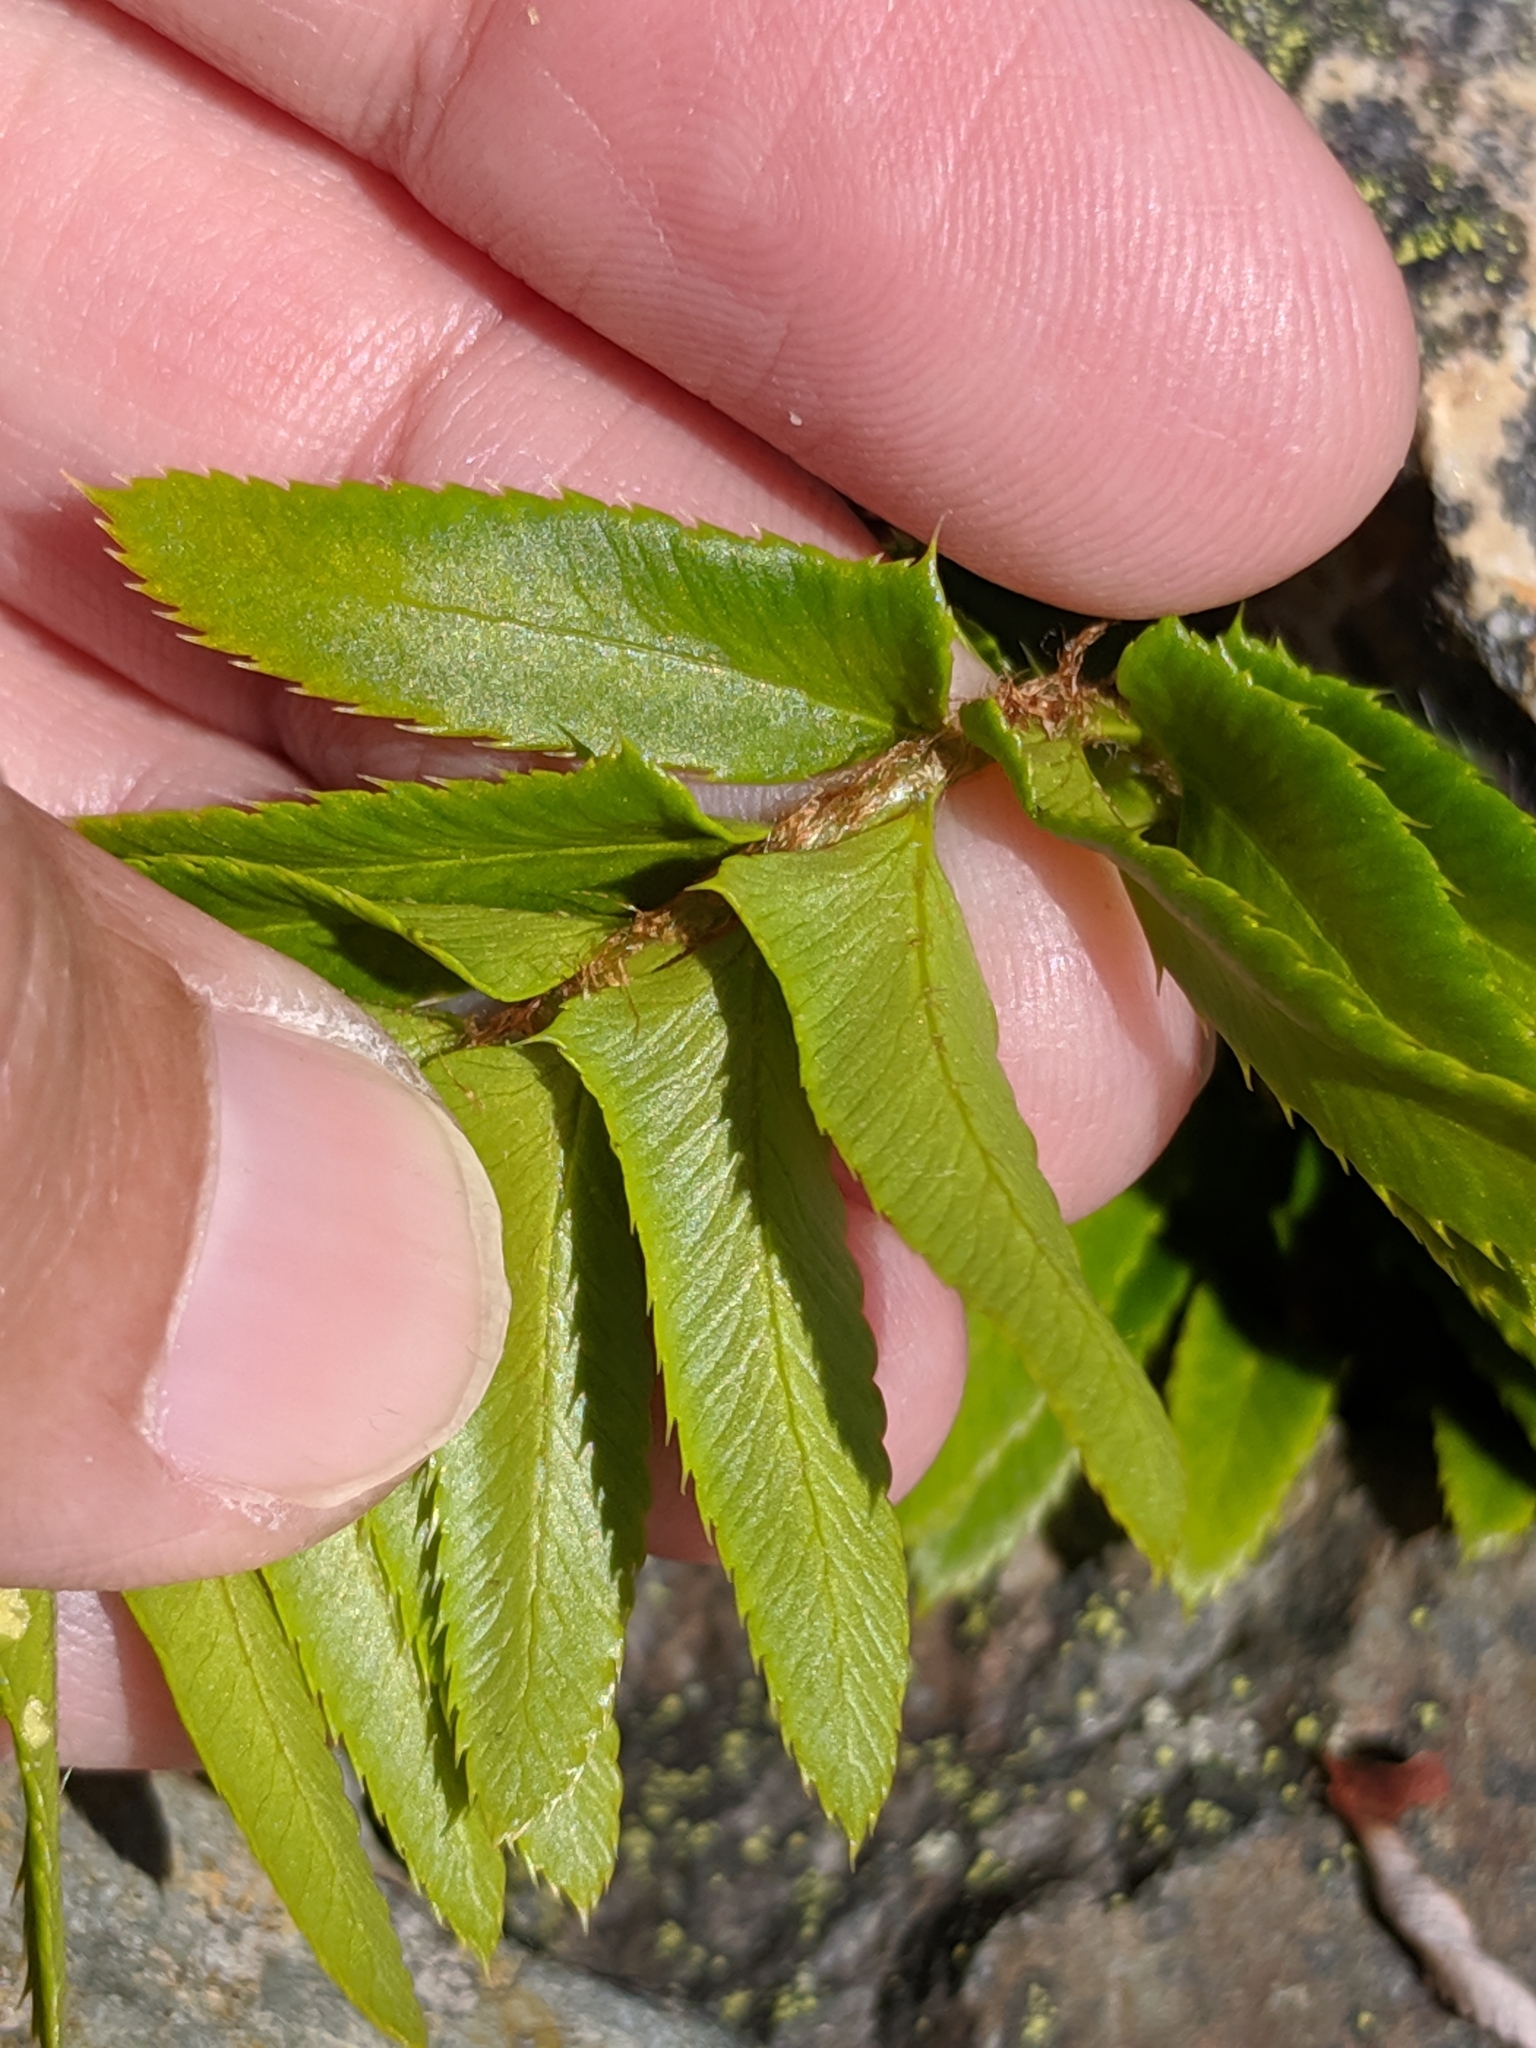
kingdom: Plantae
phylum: Tracheophyta
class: Polypodiopsida
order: Polypodiales
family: Dryopteridaceae
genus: Polystichum
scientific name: Polystichum munitum
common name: Western sword-fern
